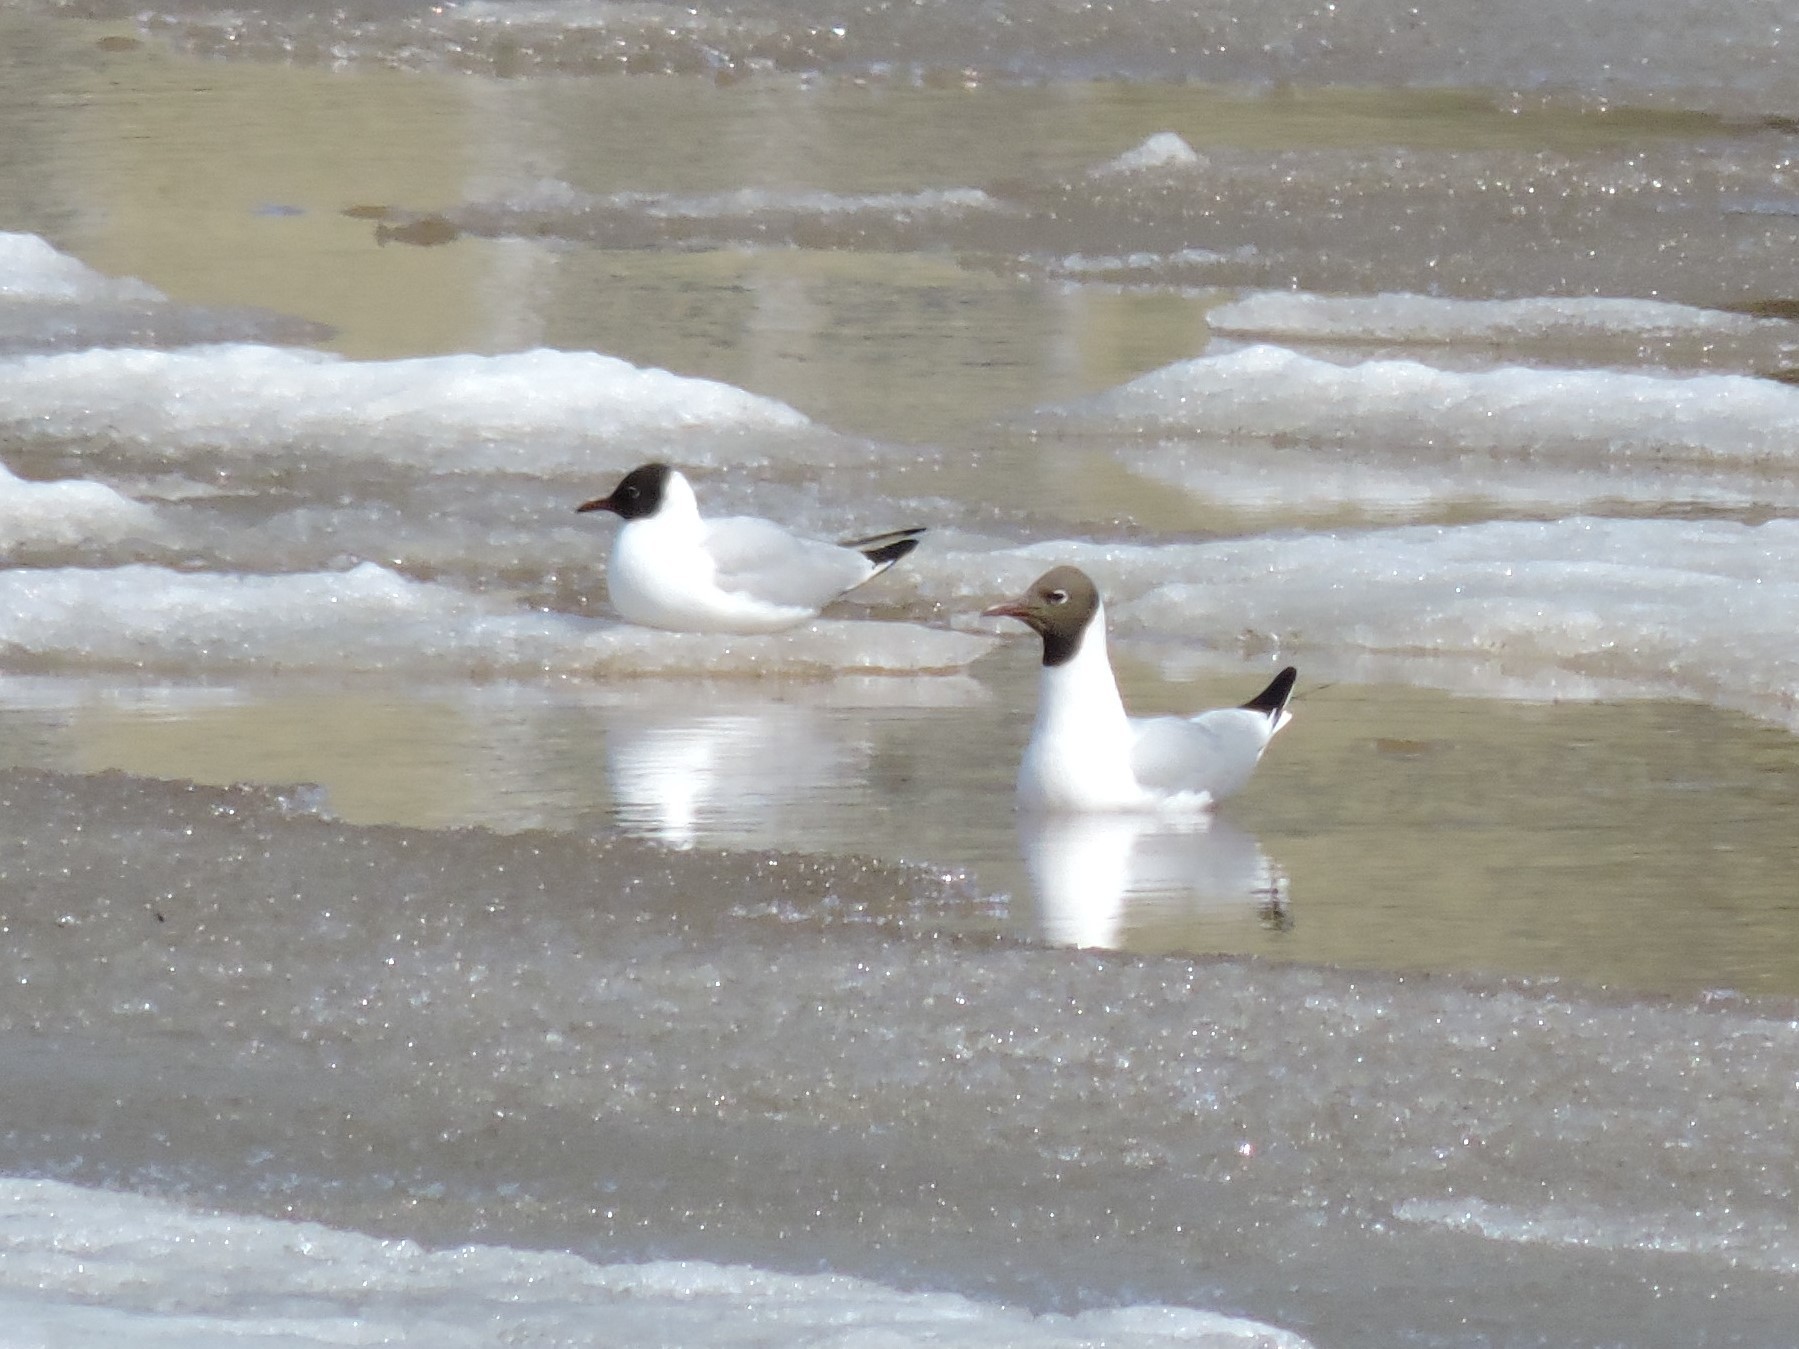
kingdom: Animalia
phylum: Chordata
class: Aves
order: Charadriiformes
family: Laridae
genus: Chroicocephalus
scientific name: Chroicocephalus ridibundus
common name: Black-headed gull
